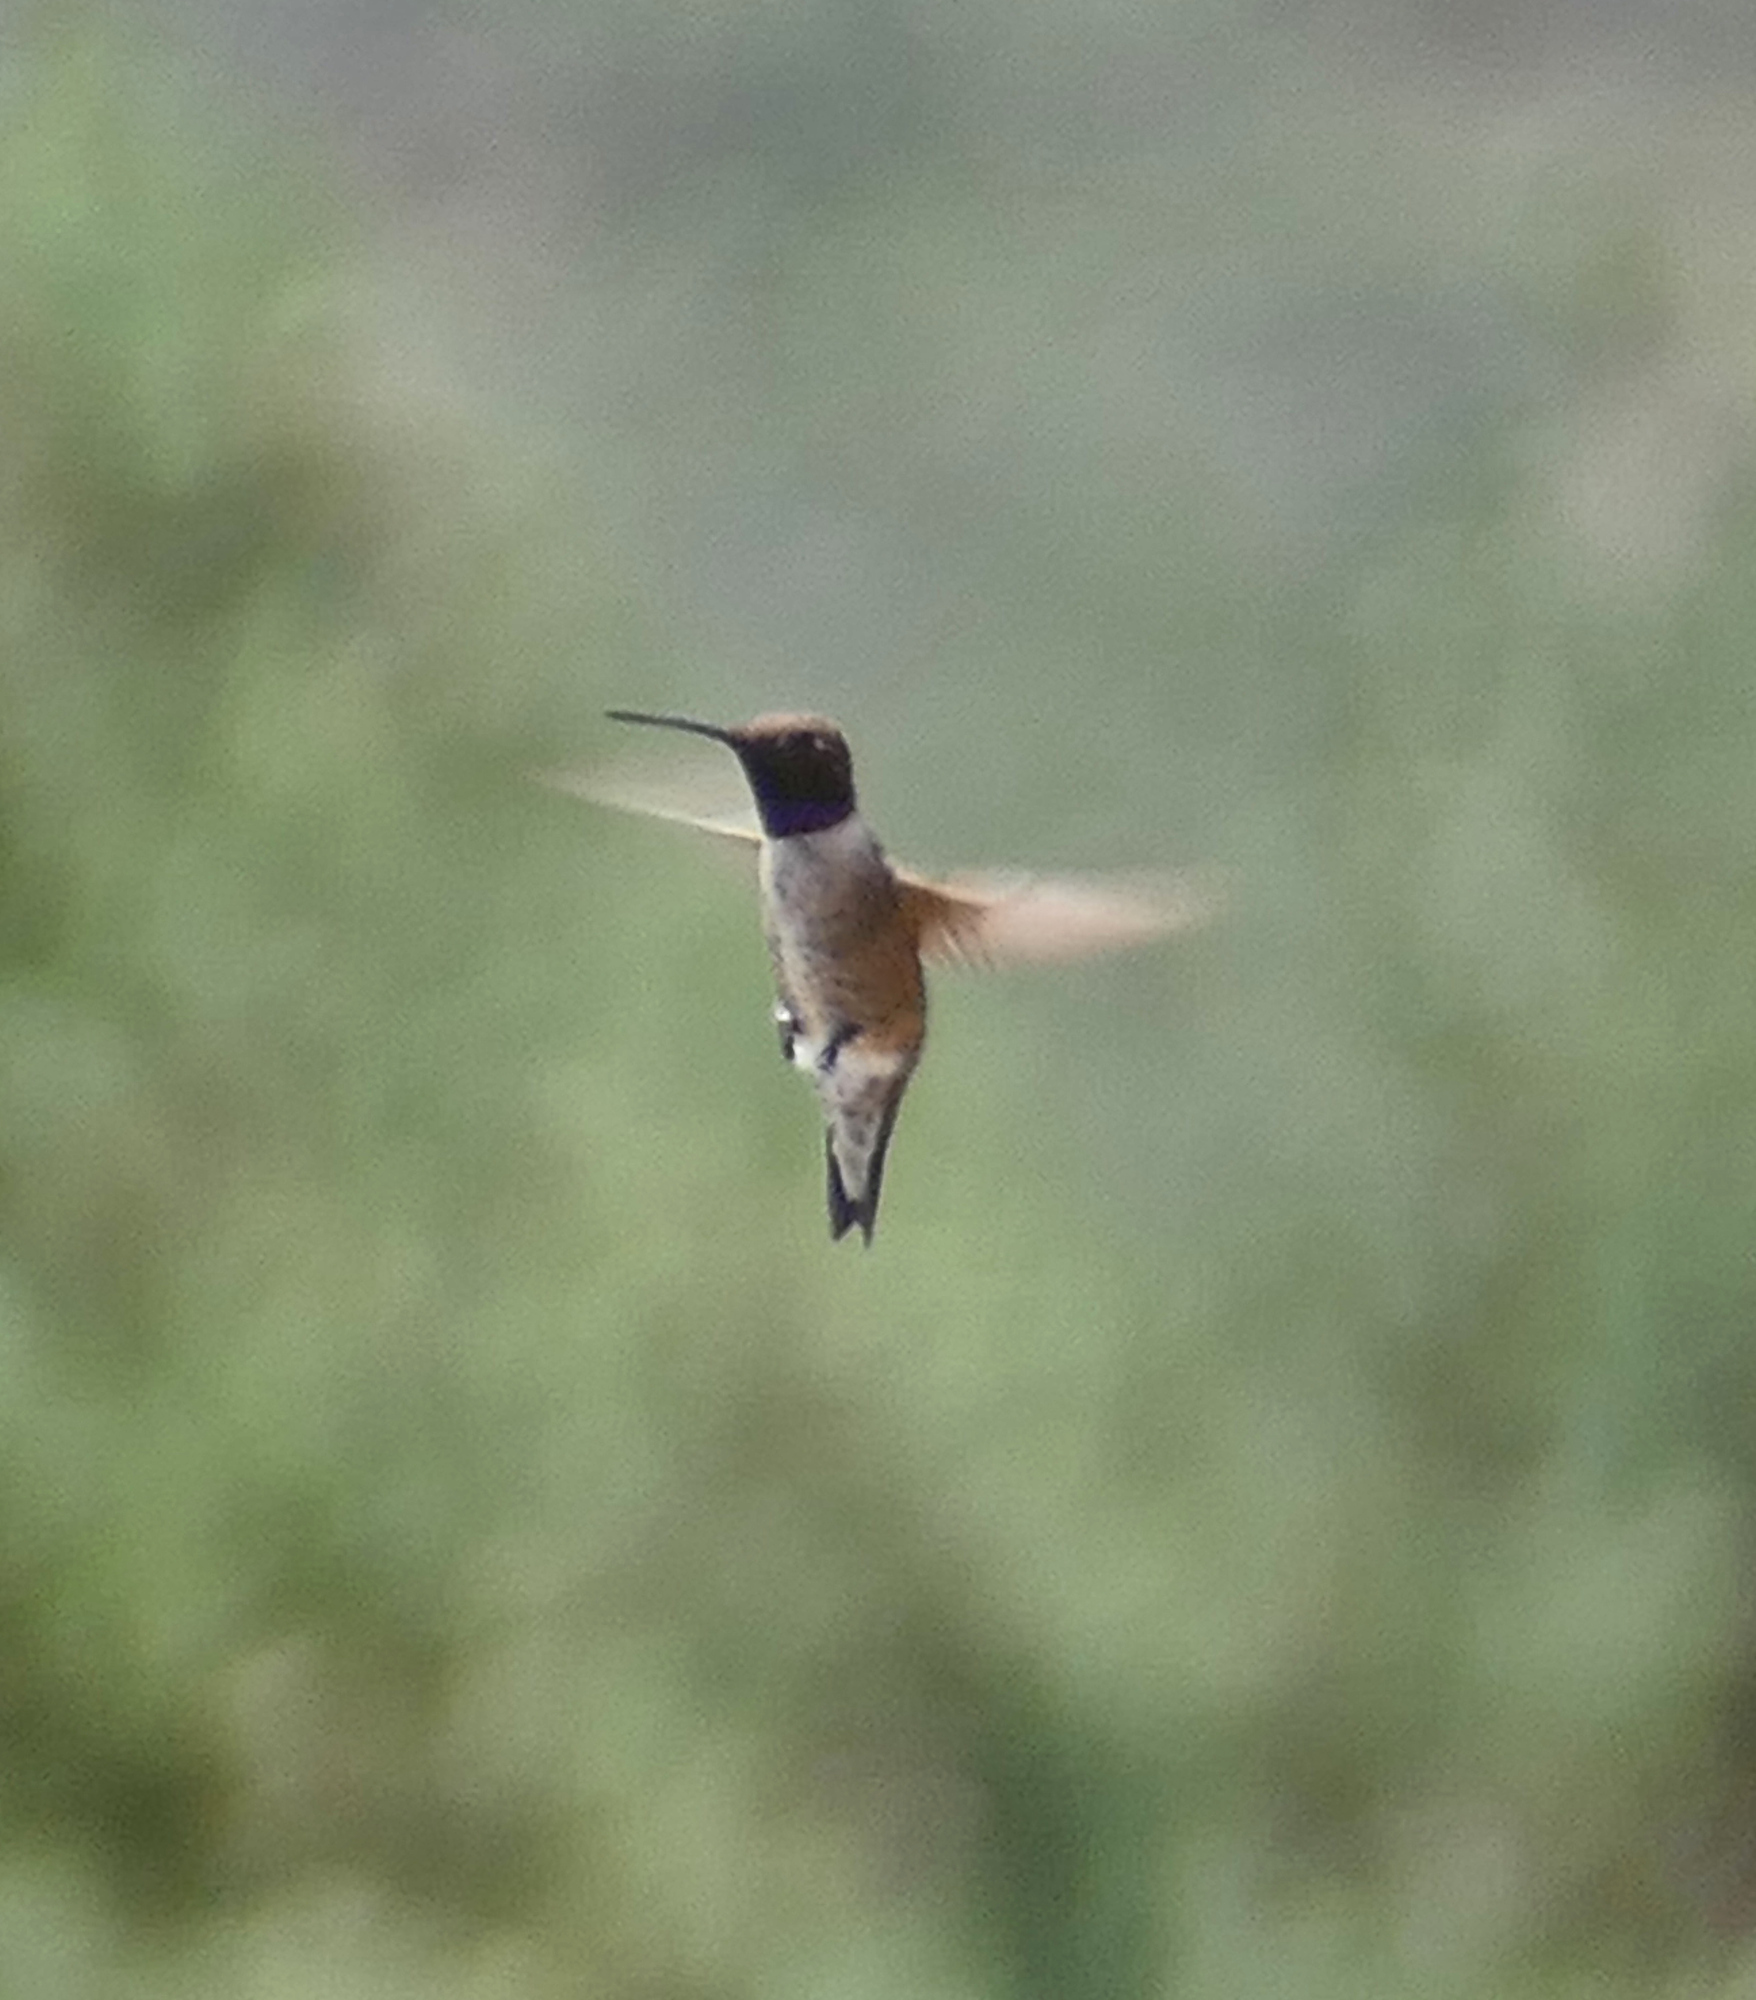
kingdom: Animalia
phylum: Chordata
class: Aves
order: Apodiformes
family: Trochilidae
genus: Archilochus
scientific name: Archilochus alexandri
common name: Black-chinned hummingbird
